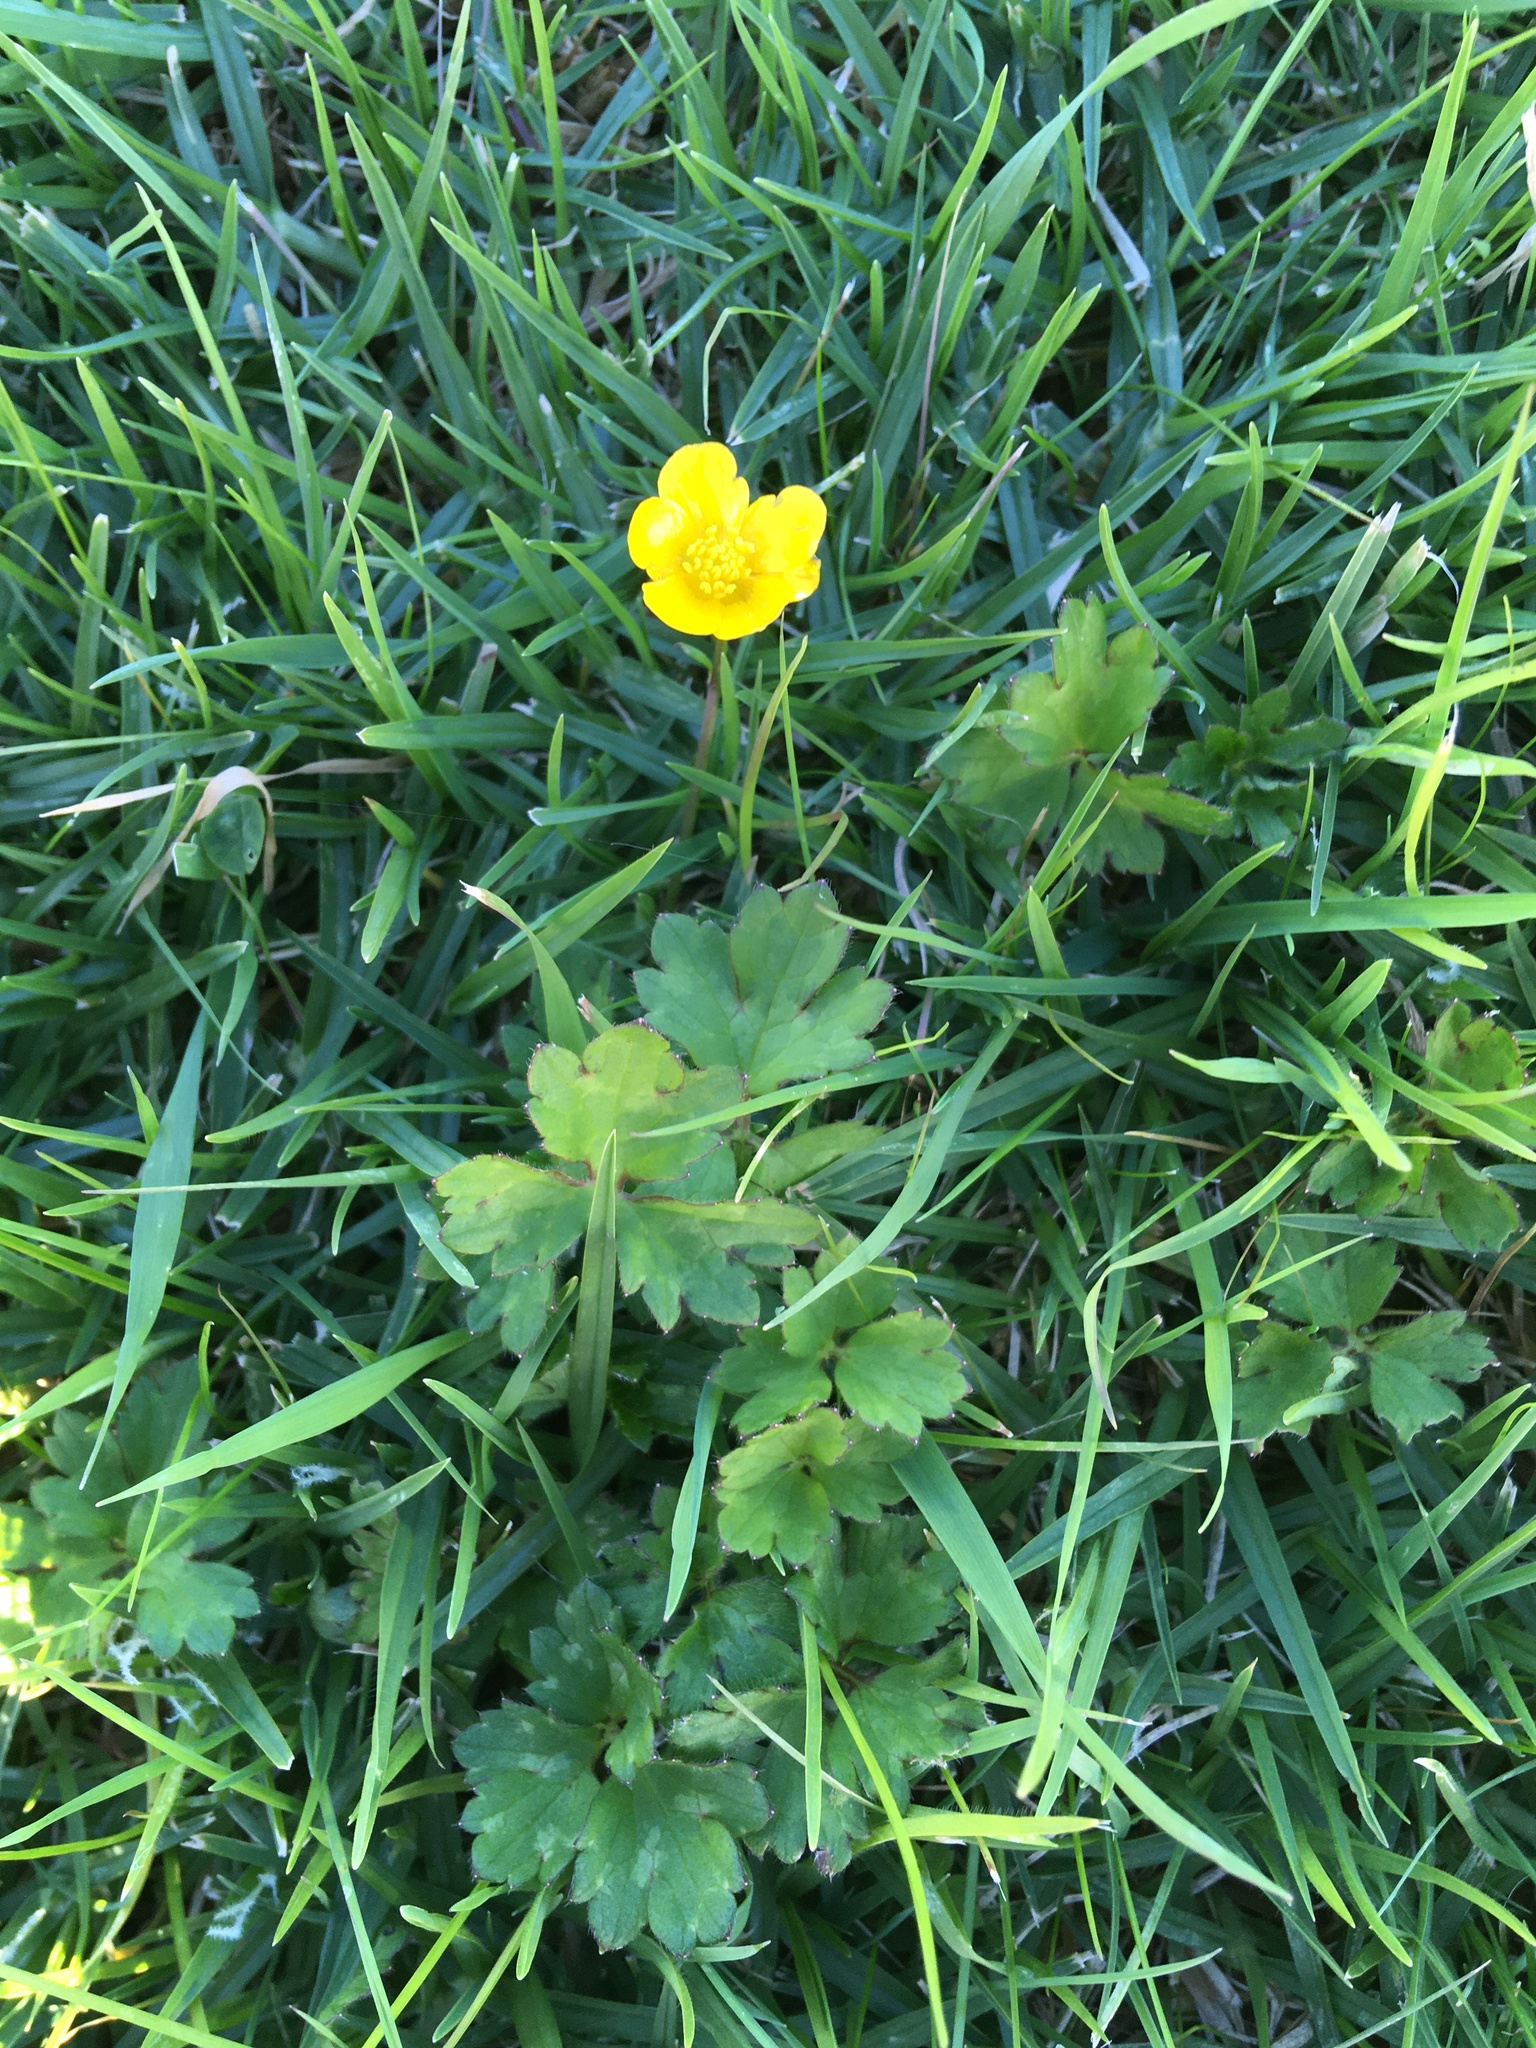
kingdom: Plantae
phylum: Tracheophyta
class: Magnoliopsida
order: Ranunculales
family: Ranunculaceae
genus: Ranunculus
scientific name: Ranunculus repens
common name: Creeping buttercup
